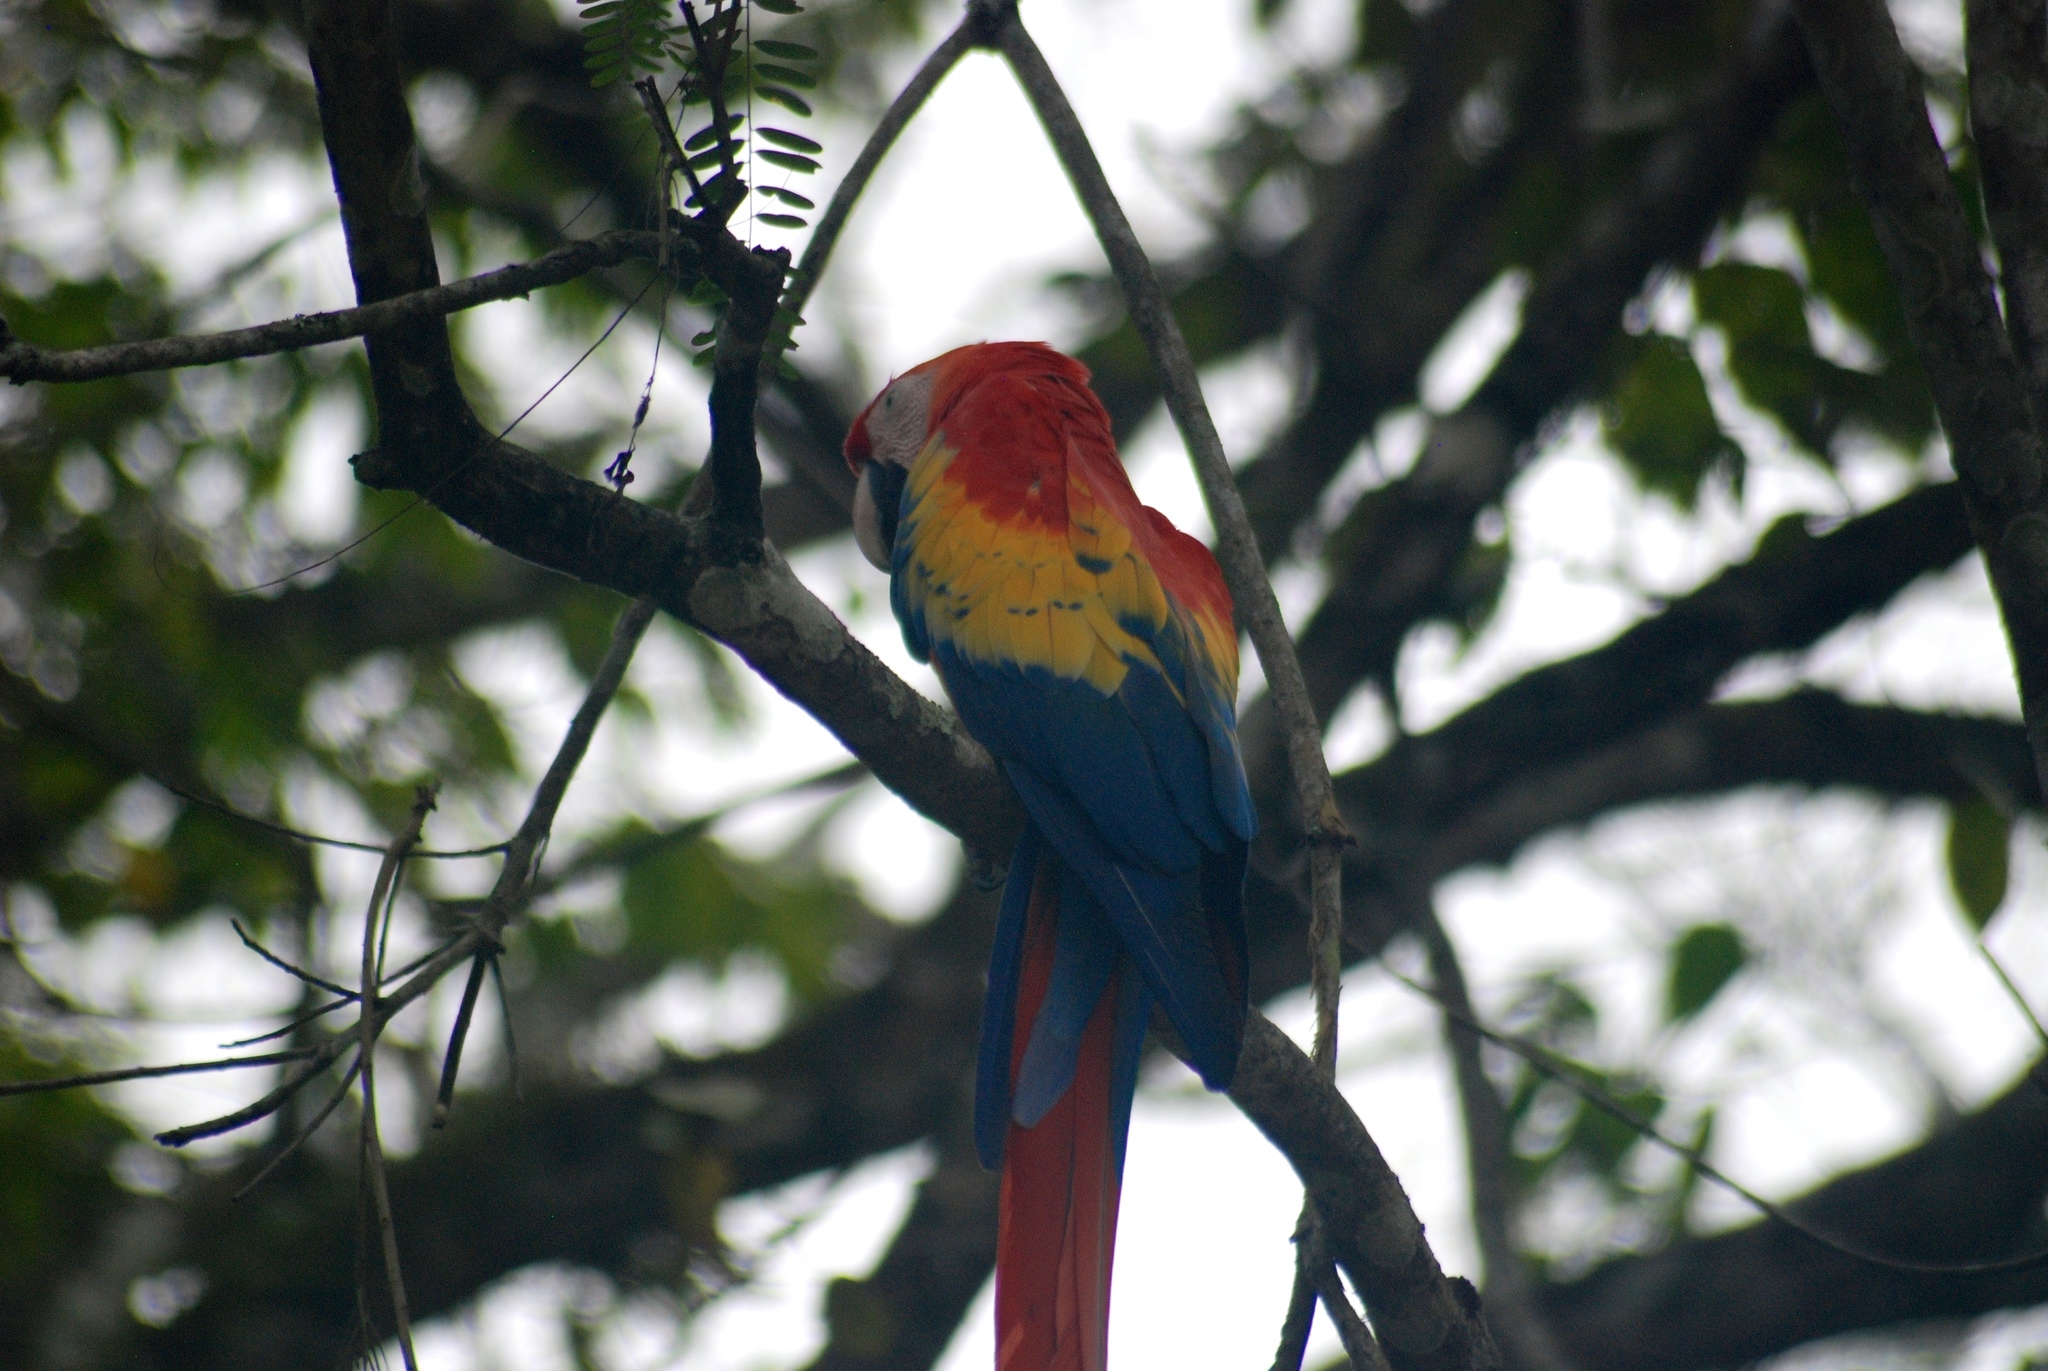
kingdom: Animalia
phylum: Chordata
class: Aves
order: Psittaciformes
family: Psittacidae
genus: Ara
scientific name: Ara macao
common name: Scarlet macaw
